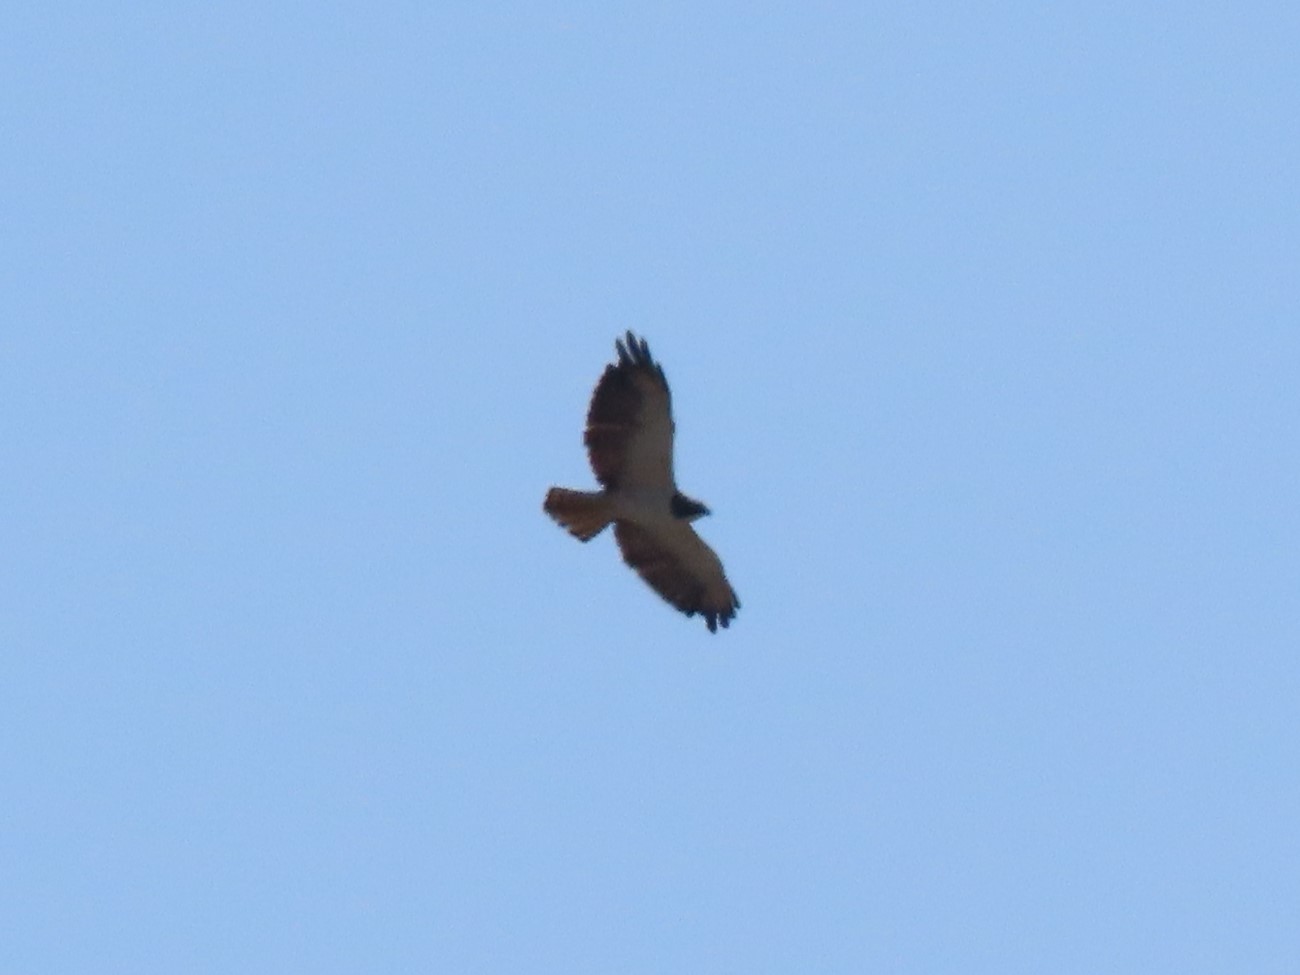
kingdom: Animalia
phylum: Chordata
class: Aves
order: Accipitriformes
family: Accipitridae
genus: Buteo
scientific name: Buteo brachyurus
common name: Short-tailed hawk
